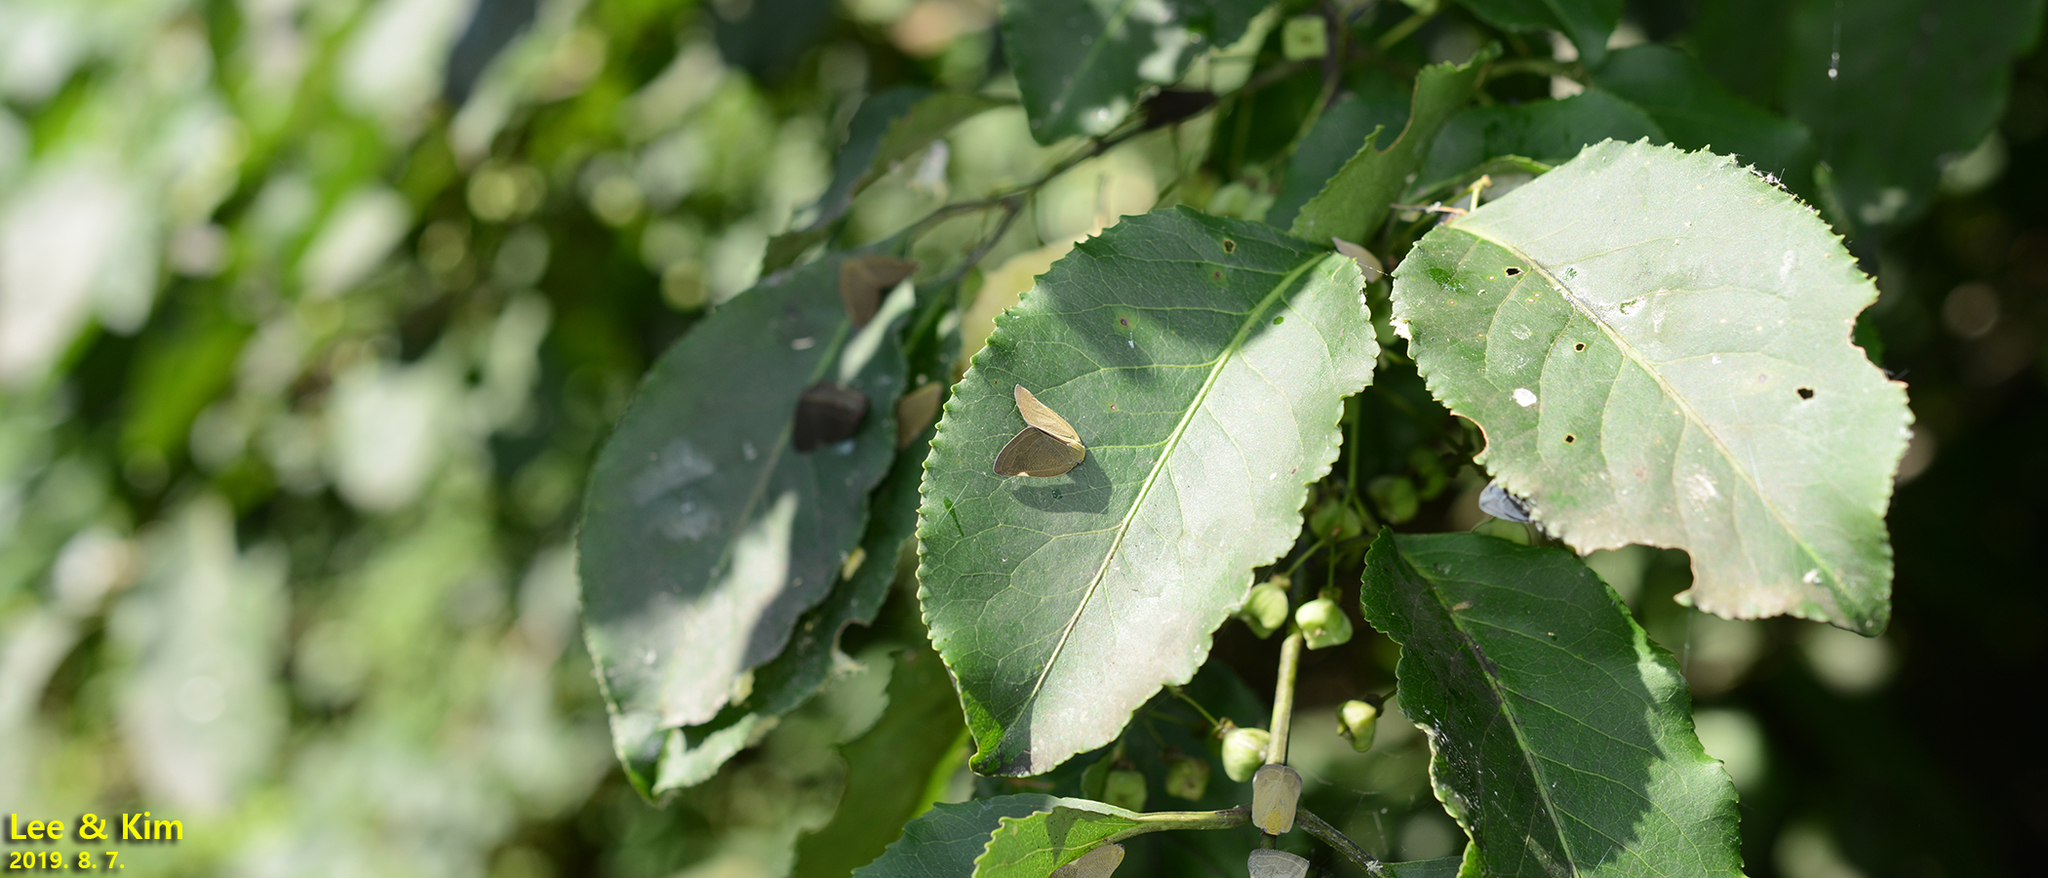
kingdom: Animalia
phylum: Arthropoda
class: Insecta
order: Hemiptera
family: Ricaniidae
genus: Ricanula
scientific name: Ricanula sublimata
